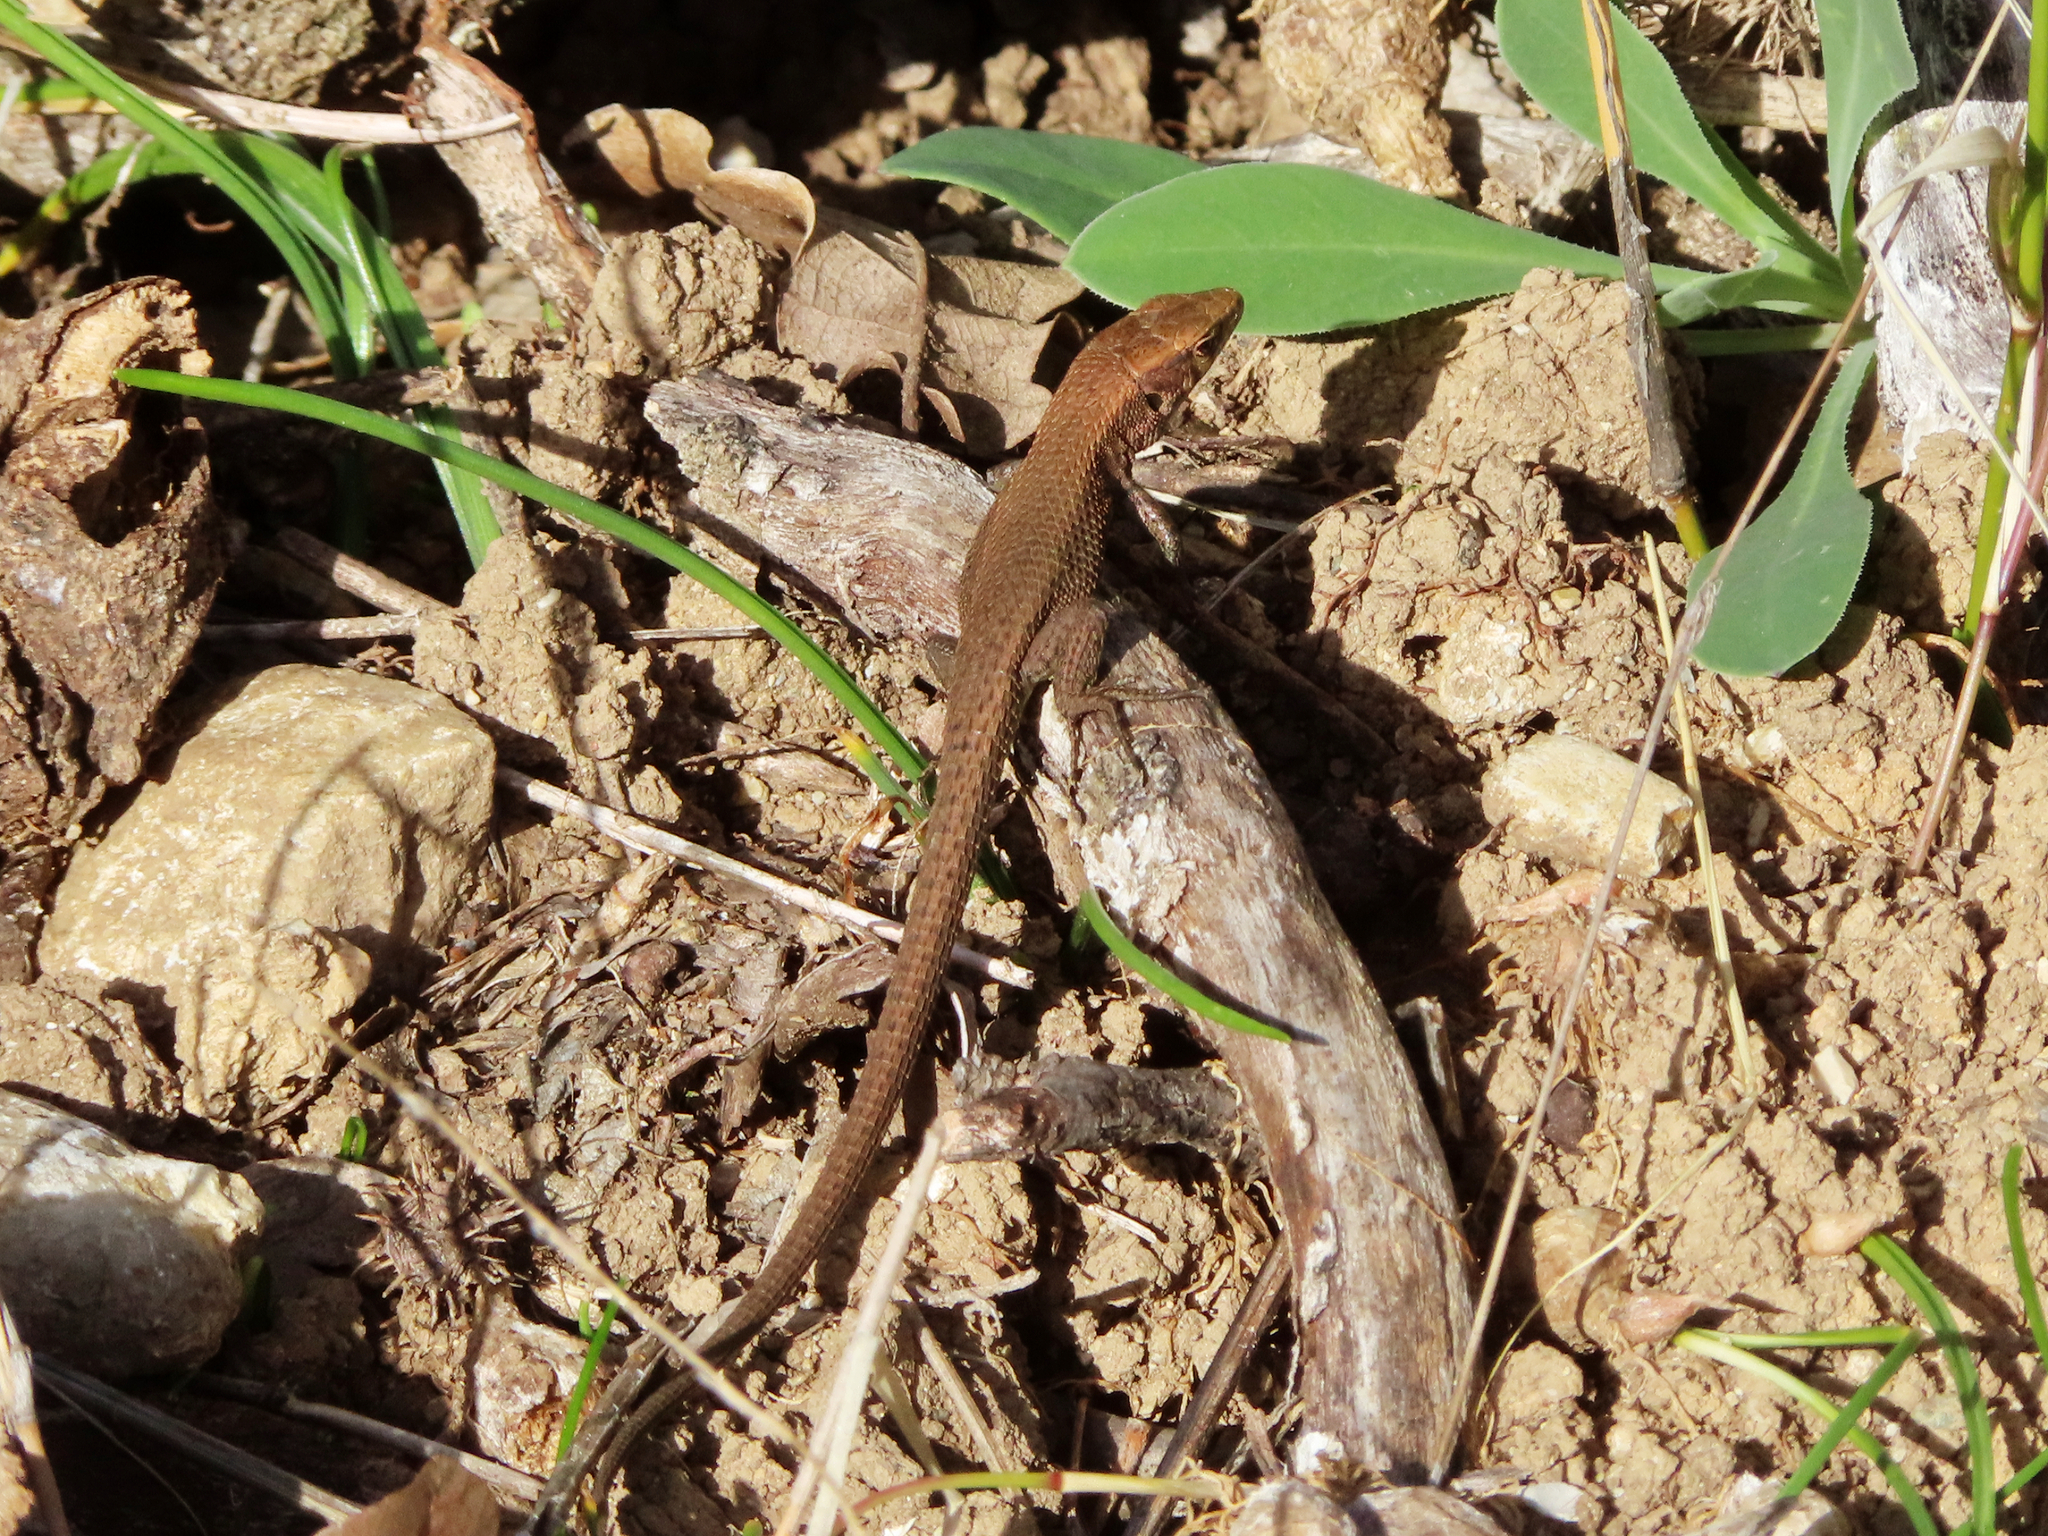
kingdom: Animalia
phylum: Chordata
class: Squamata
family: Lacertidae
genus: Algyroides
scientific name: Algyroides moreoticus
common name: Greek algyroides
